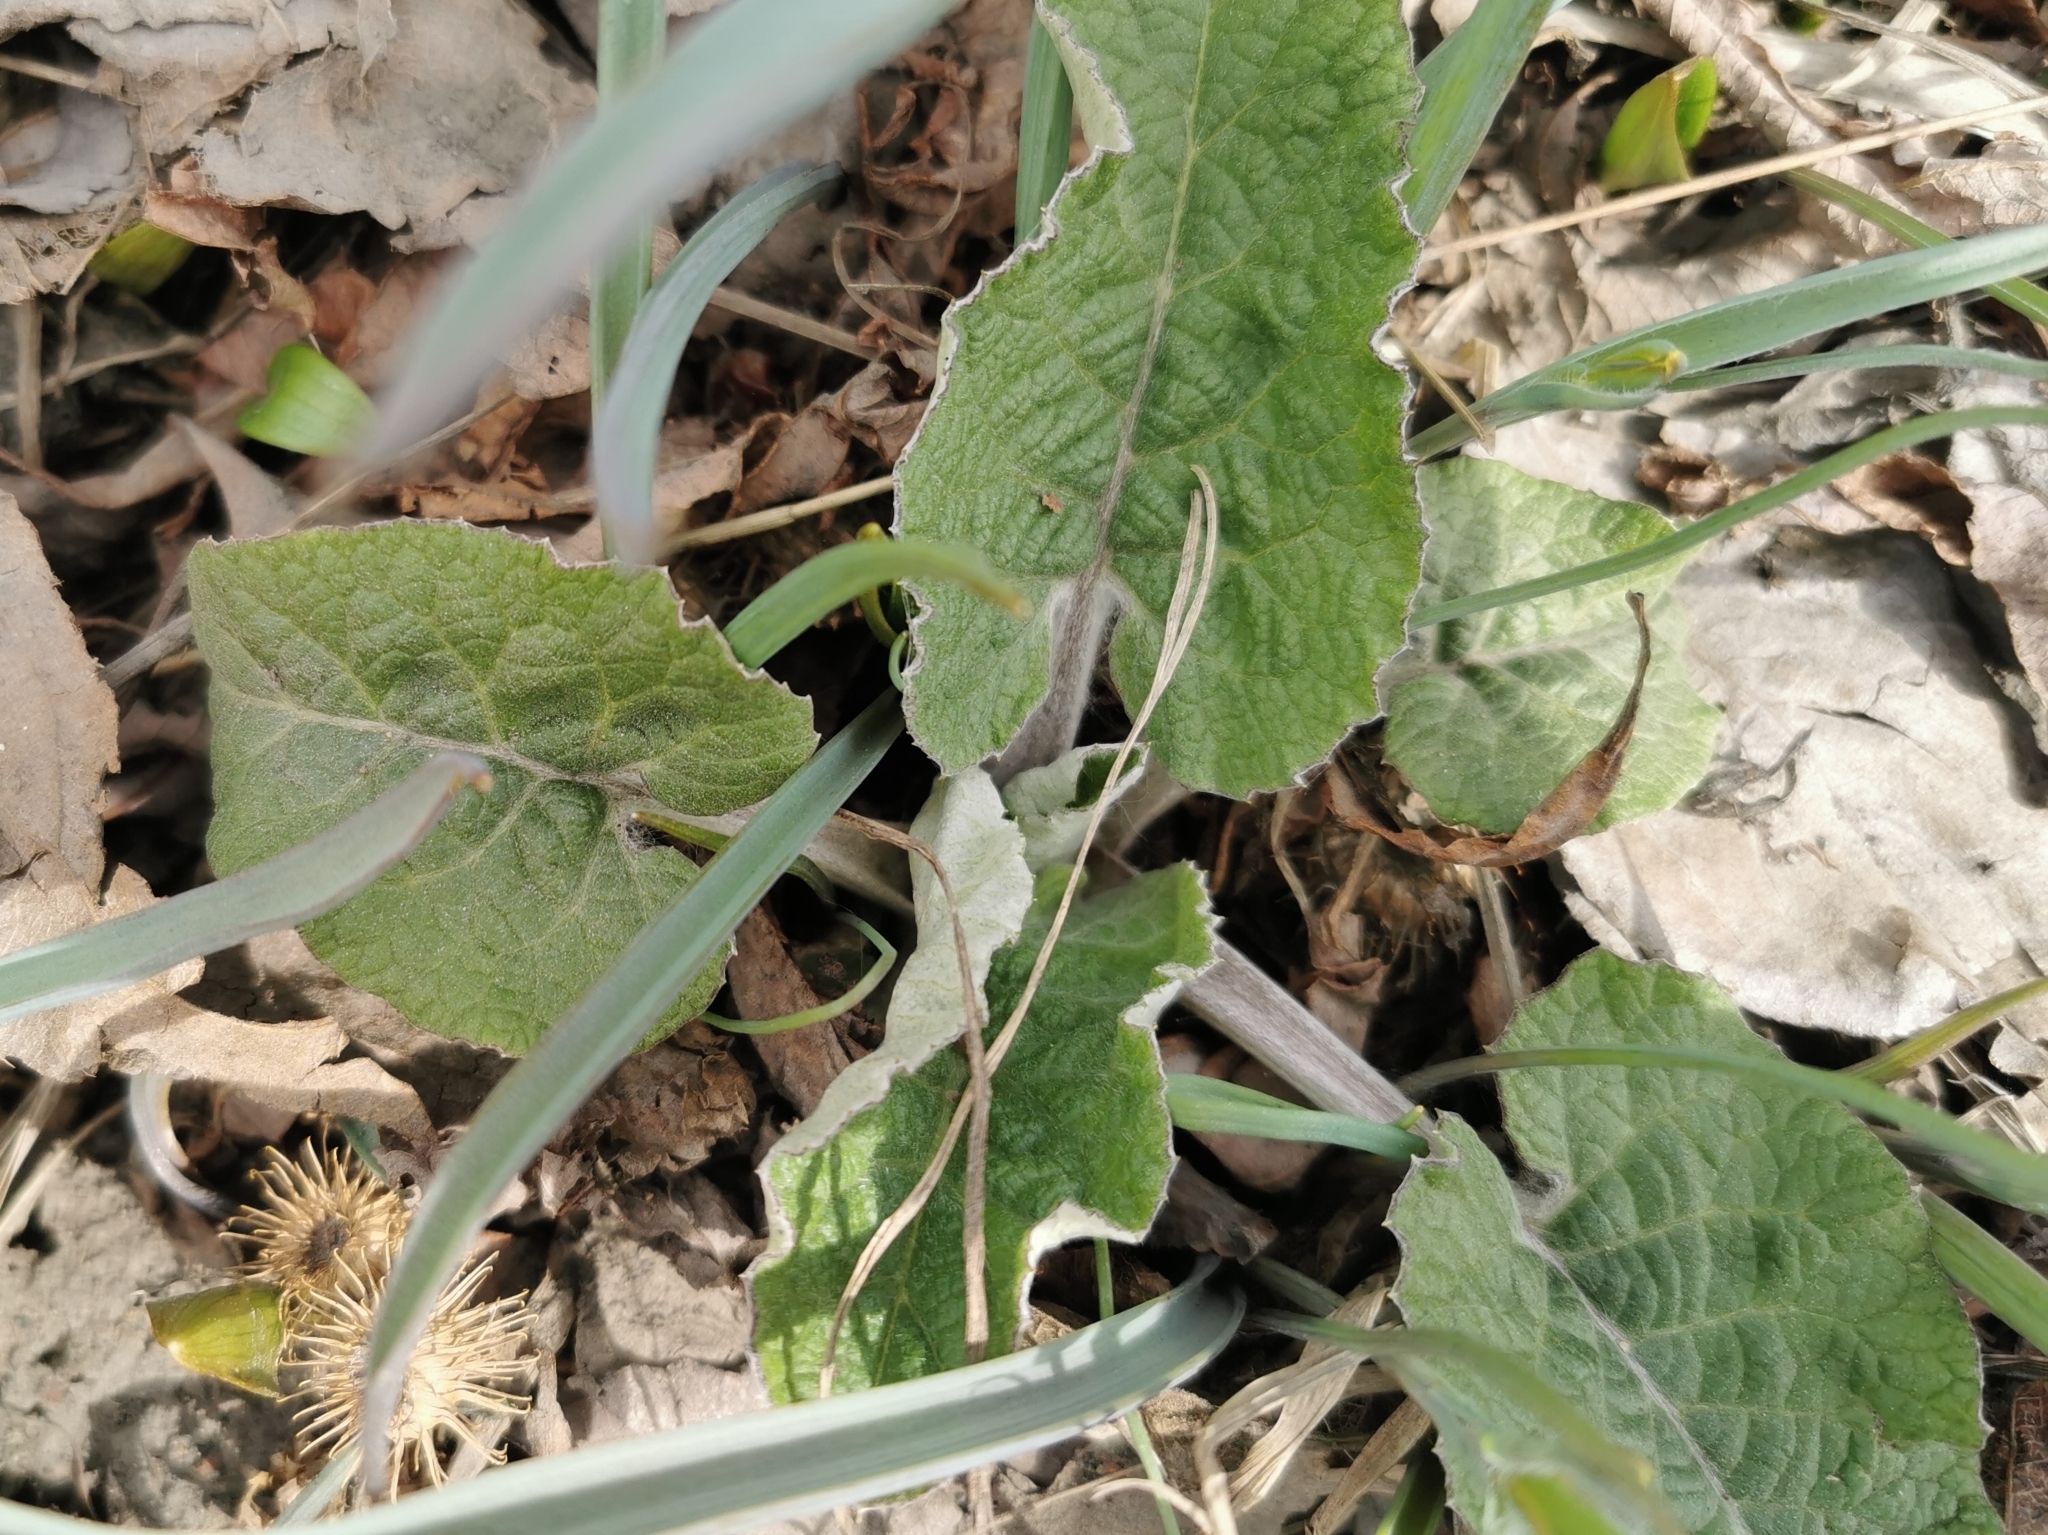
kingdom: Plantae
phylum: Tracheophyta
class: Magnoliopsida
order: Asterales
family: Asteraceae
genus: Arctium
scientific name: Arctium tomentosum
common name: Woolly burdock
